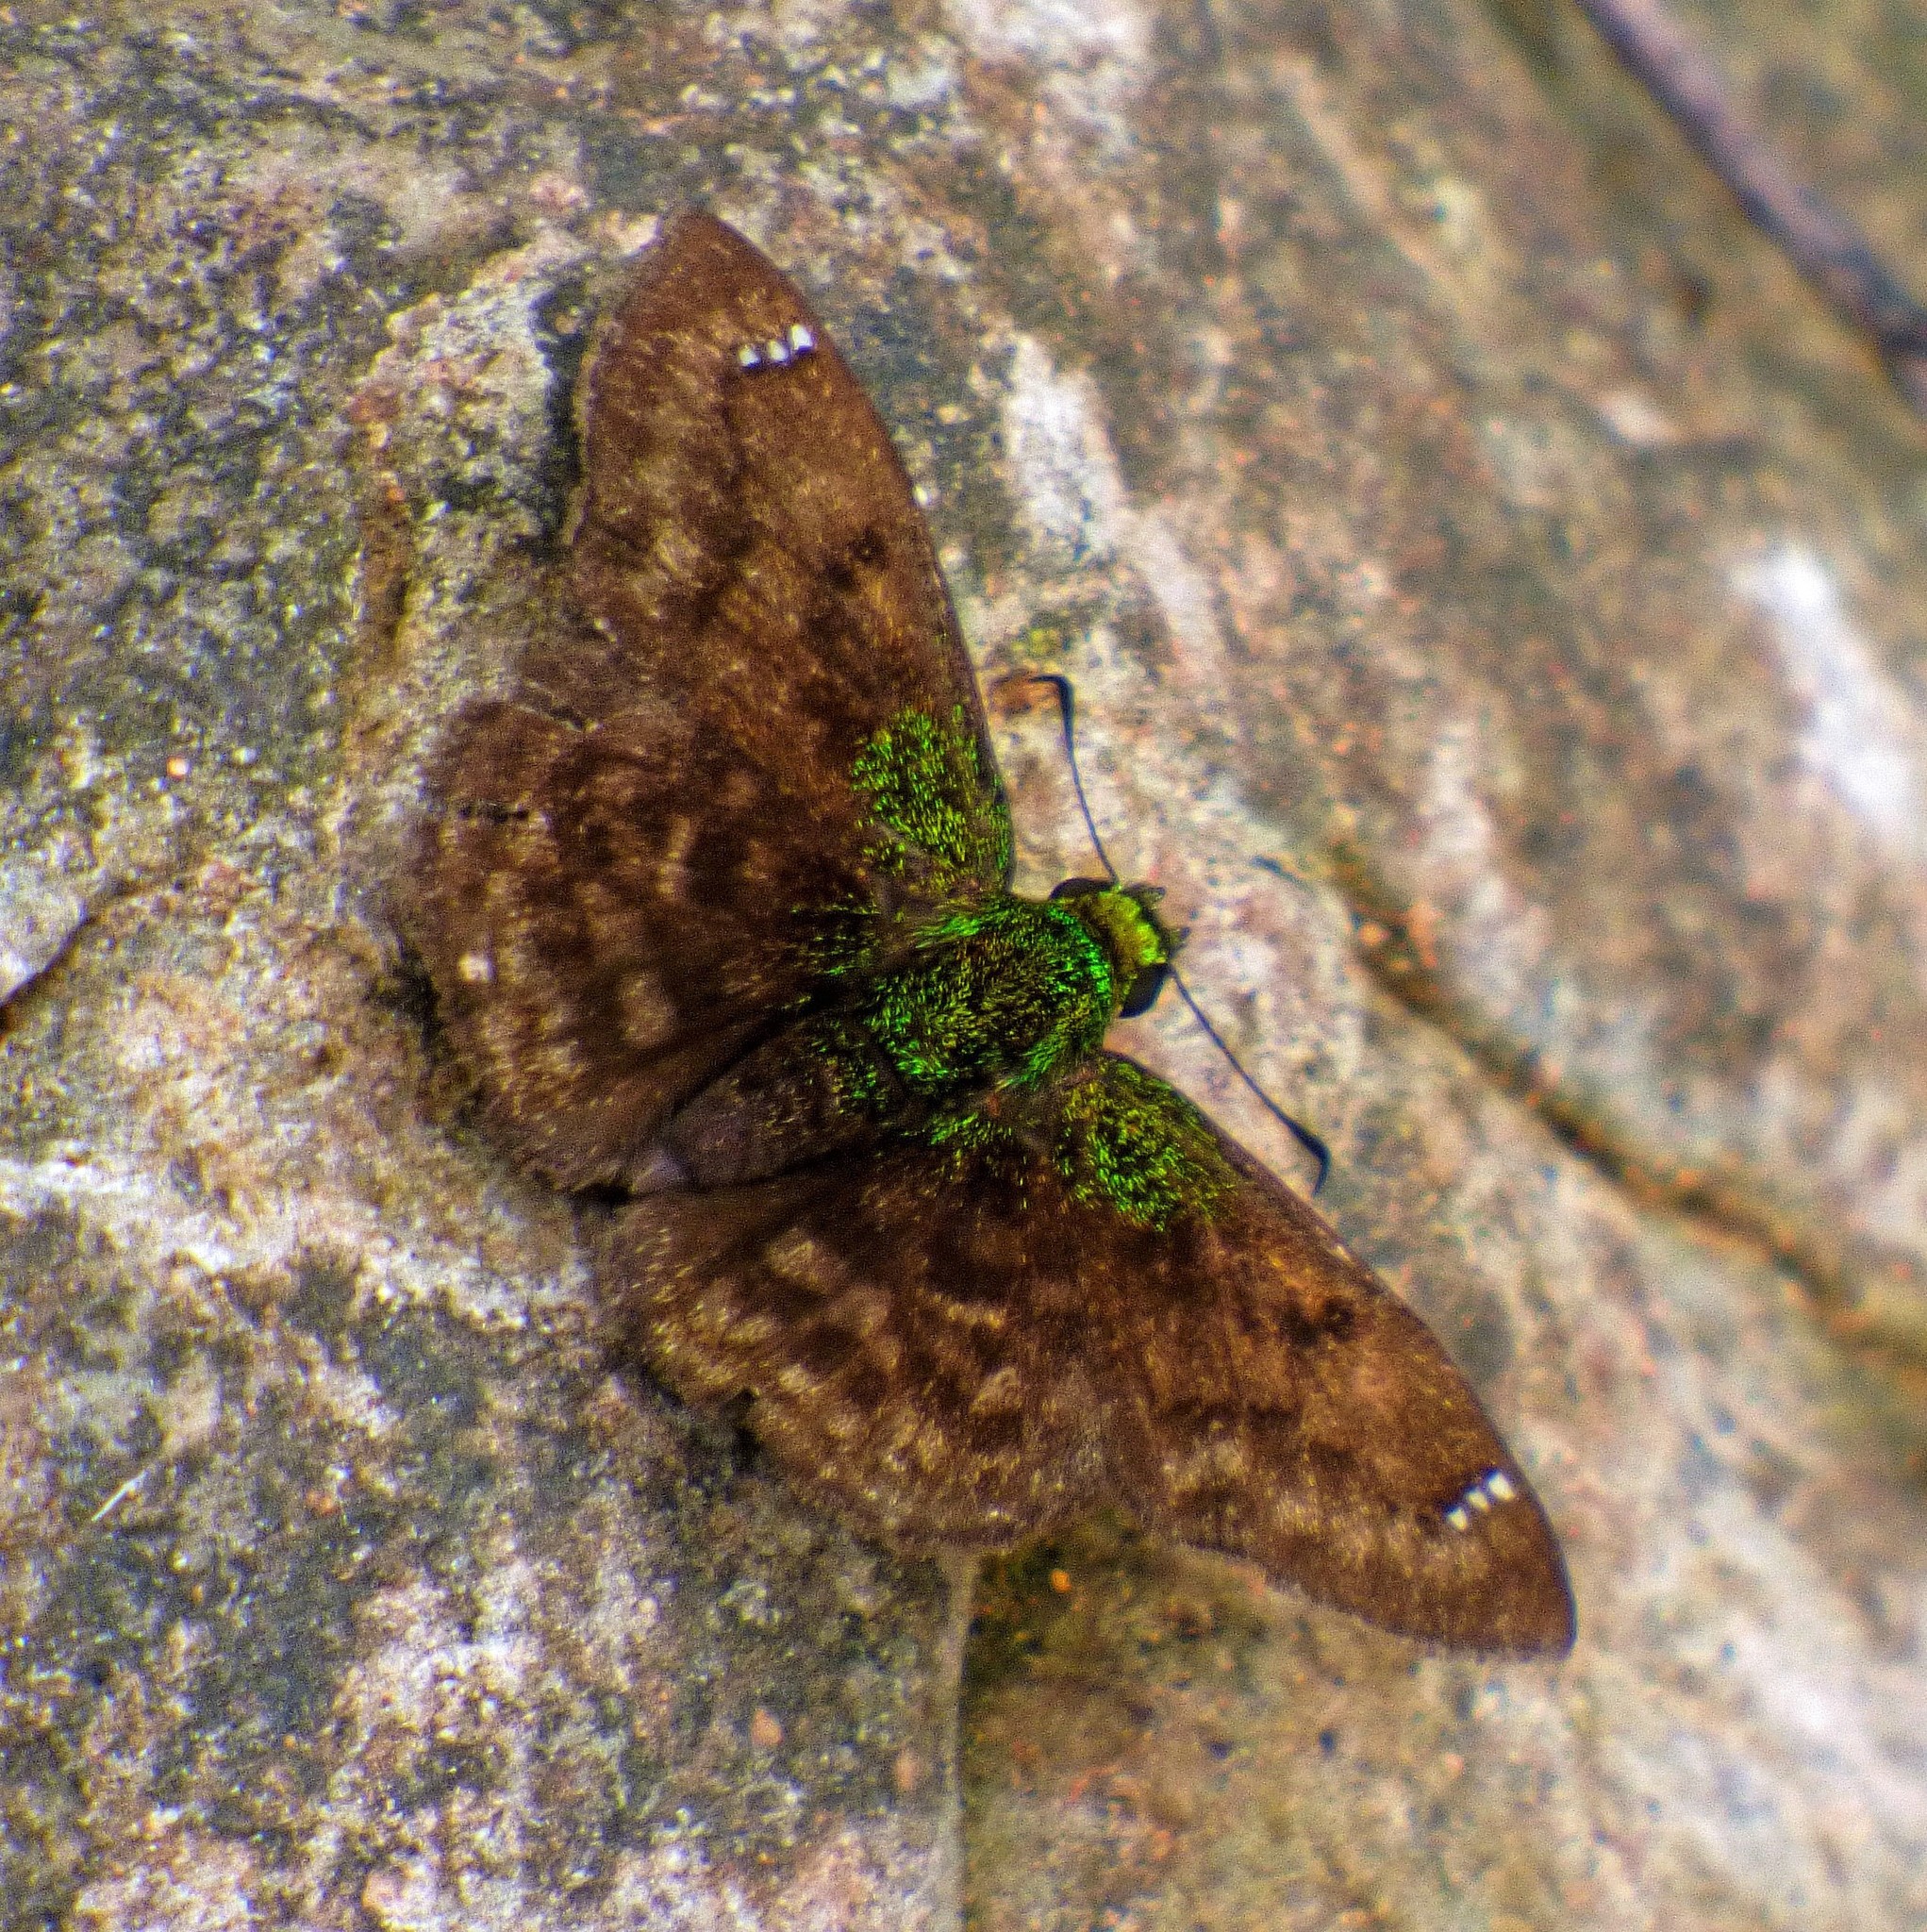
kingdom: Animalia
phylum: Arthropoda
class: Insecta
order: Lepidoptera
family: Hesperiidae
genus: Gorgopas
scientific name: Gorgopas trochilus
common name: Green-shouldered sootywing
